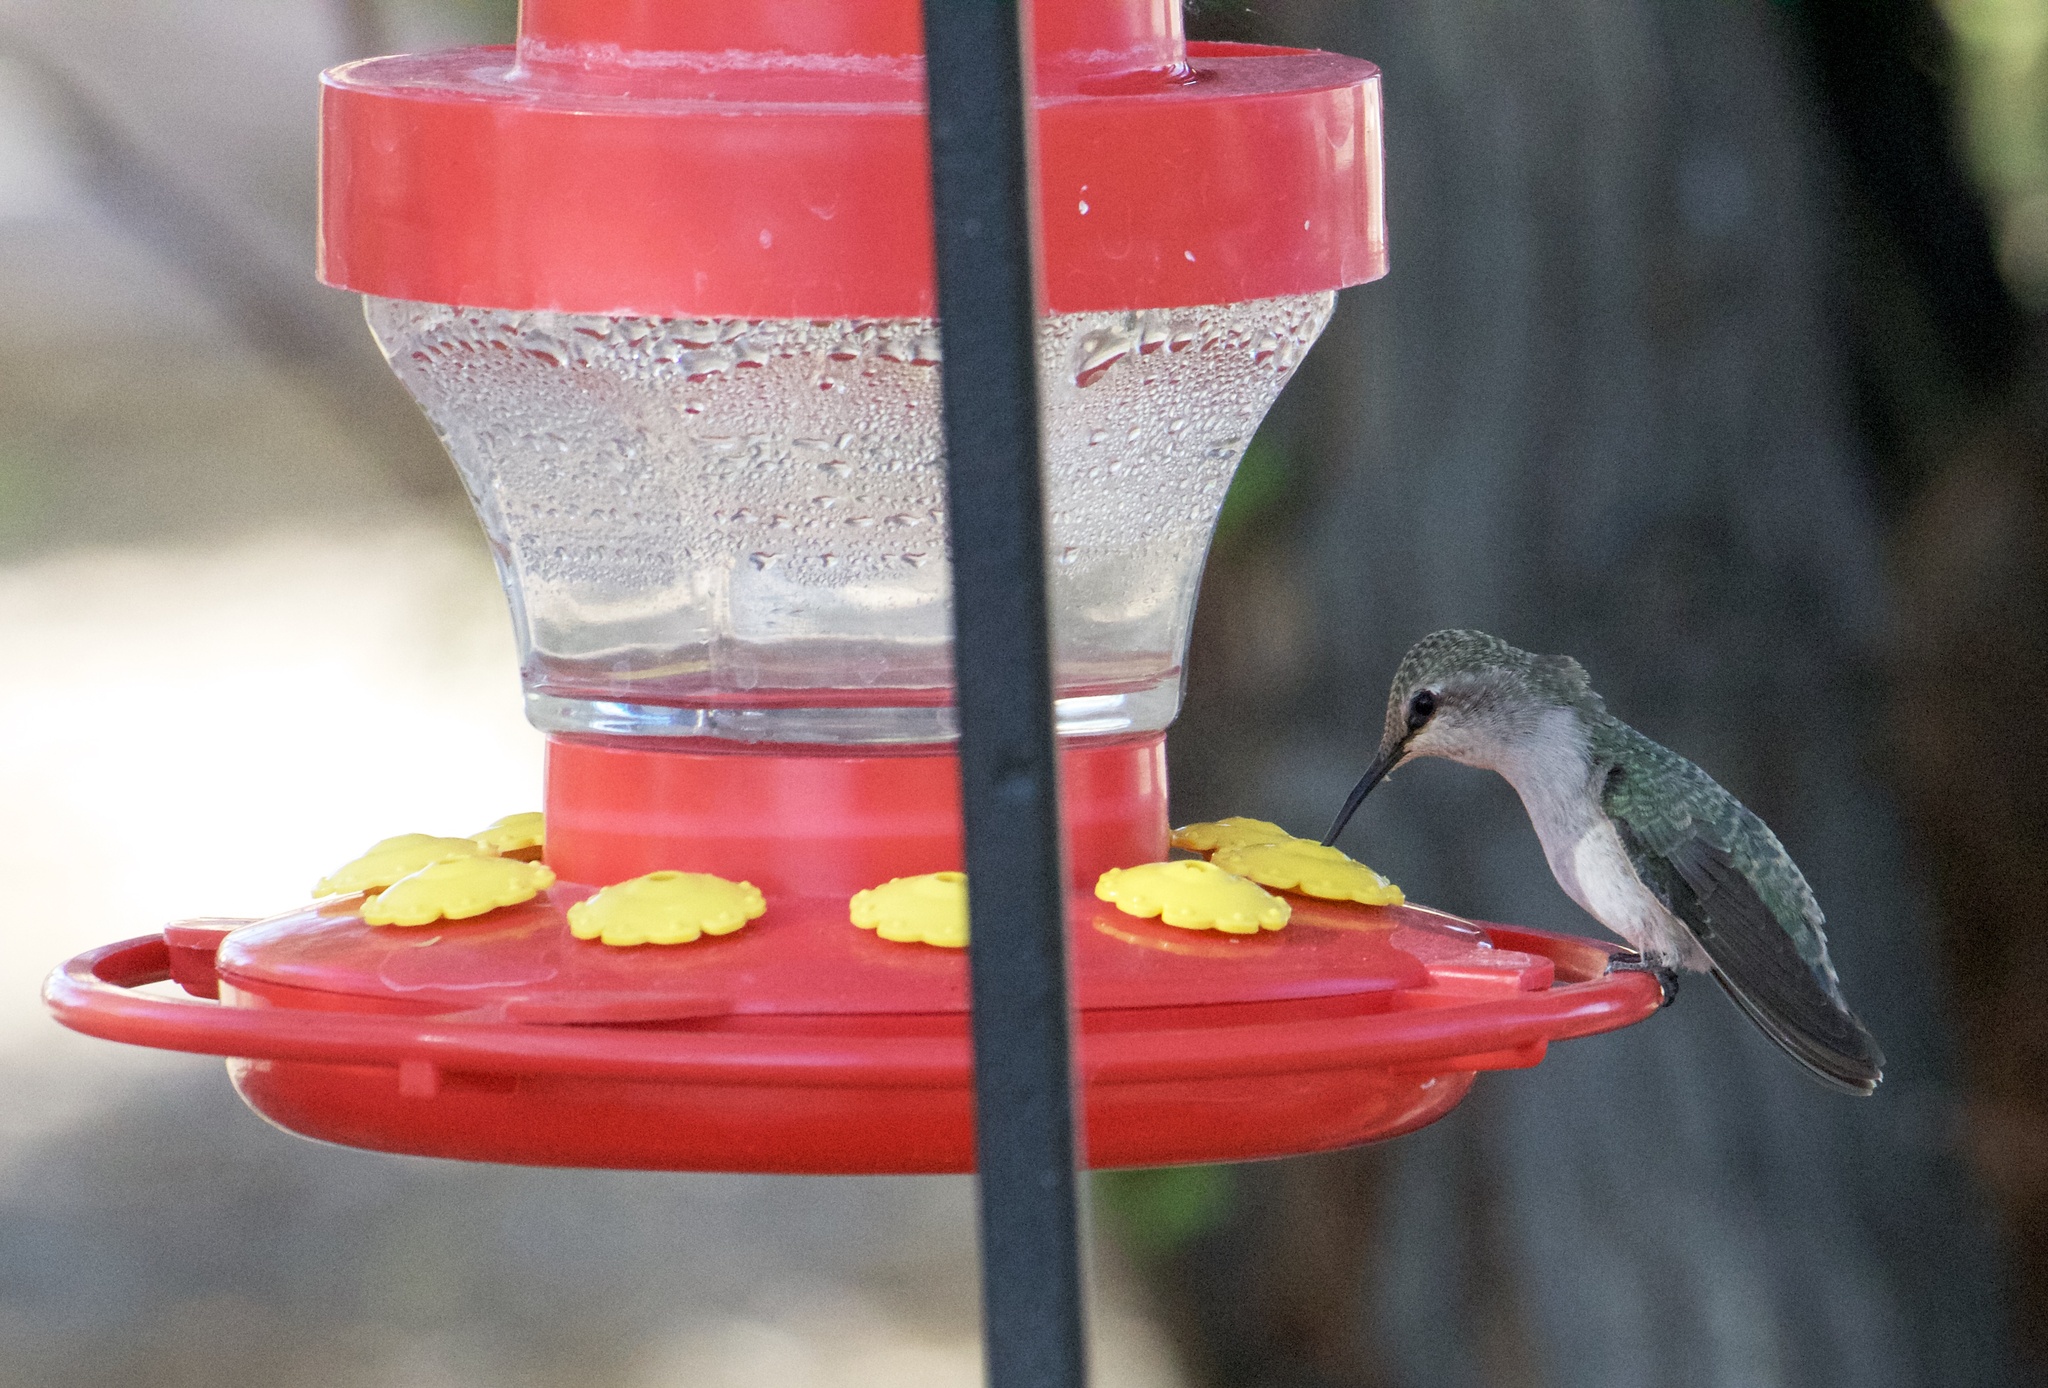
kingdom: Animalia
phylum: Chordata
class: Aves
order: Apodiformes
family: Trochilidae
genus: Archilochus
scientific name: Archilochus alexandri
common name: Black-chinned hummingbird
